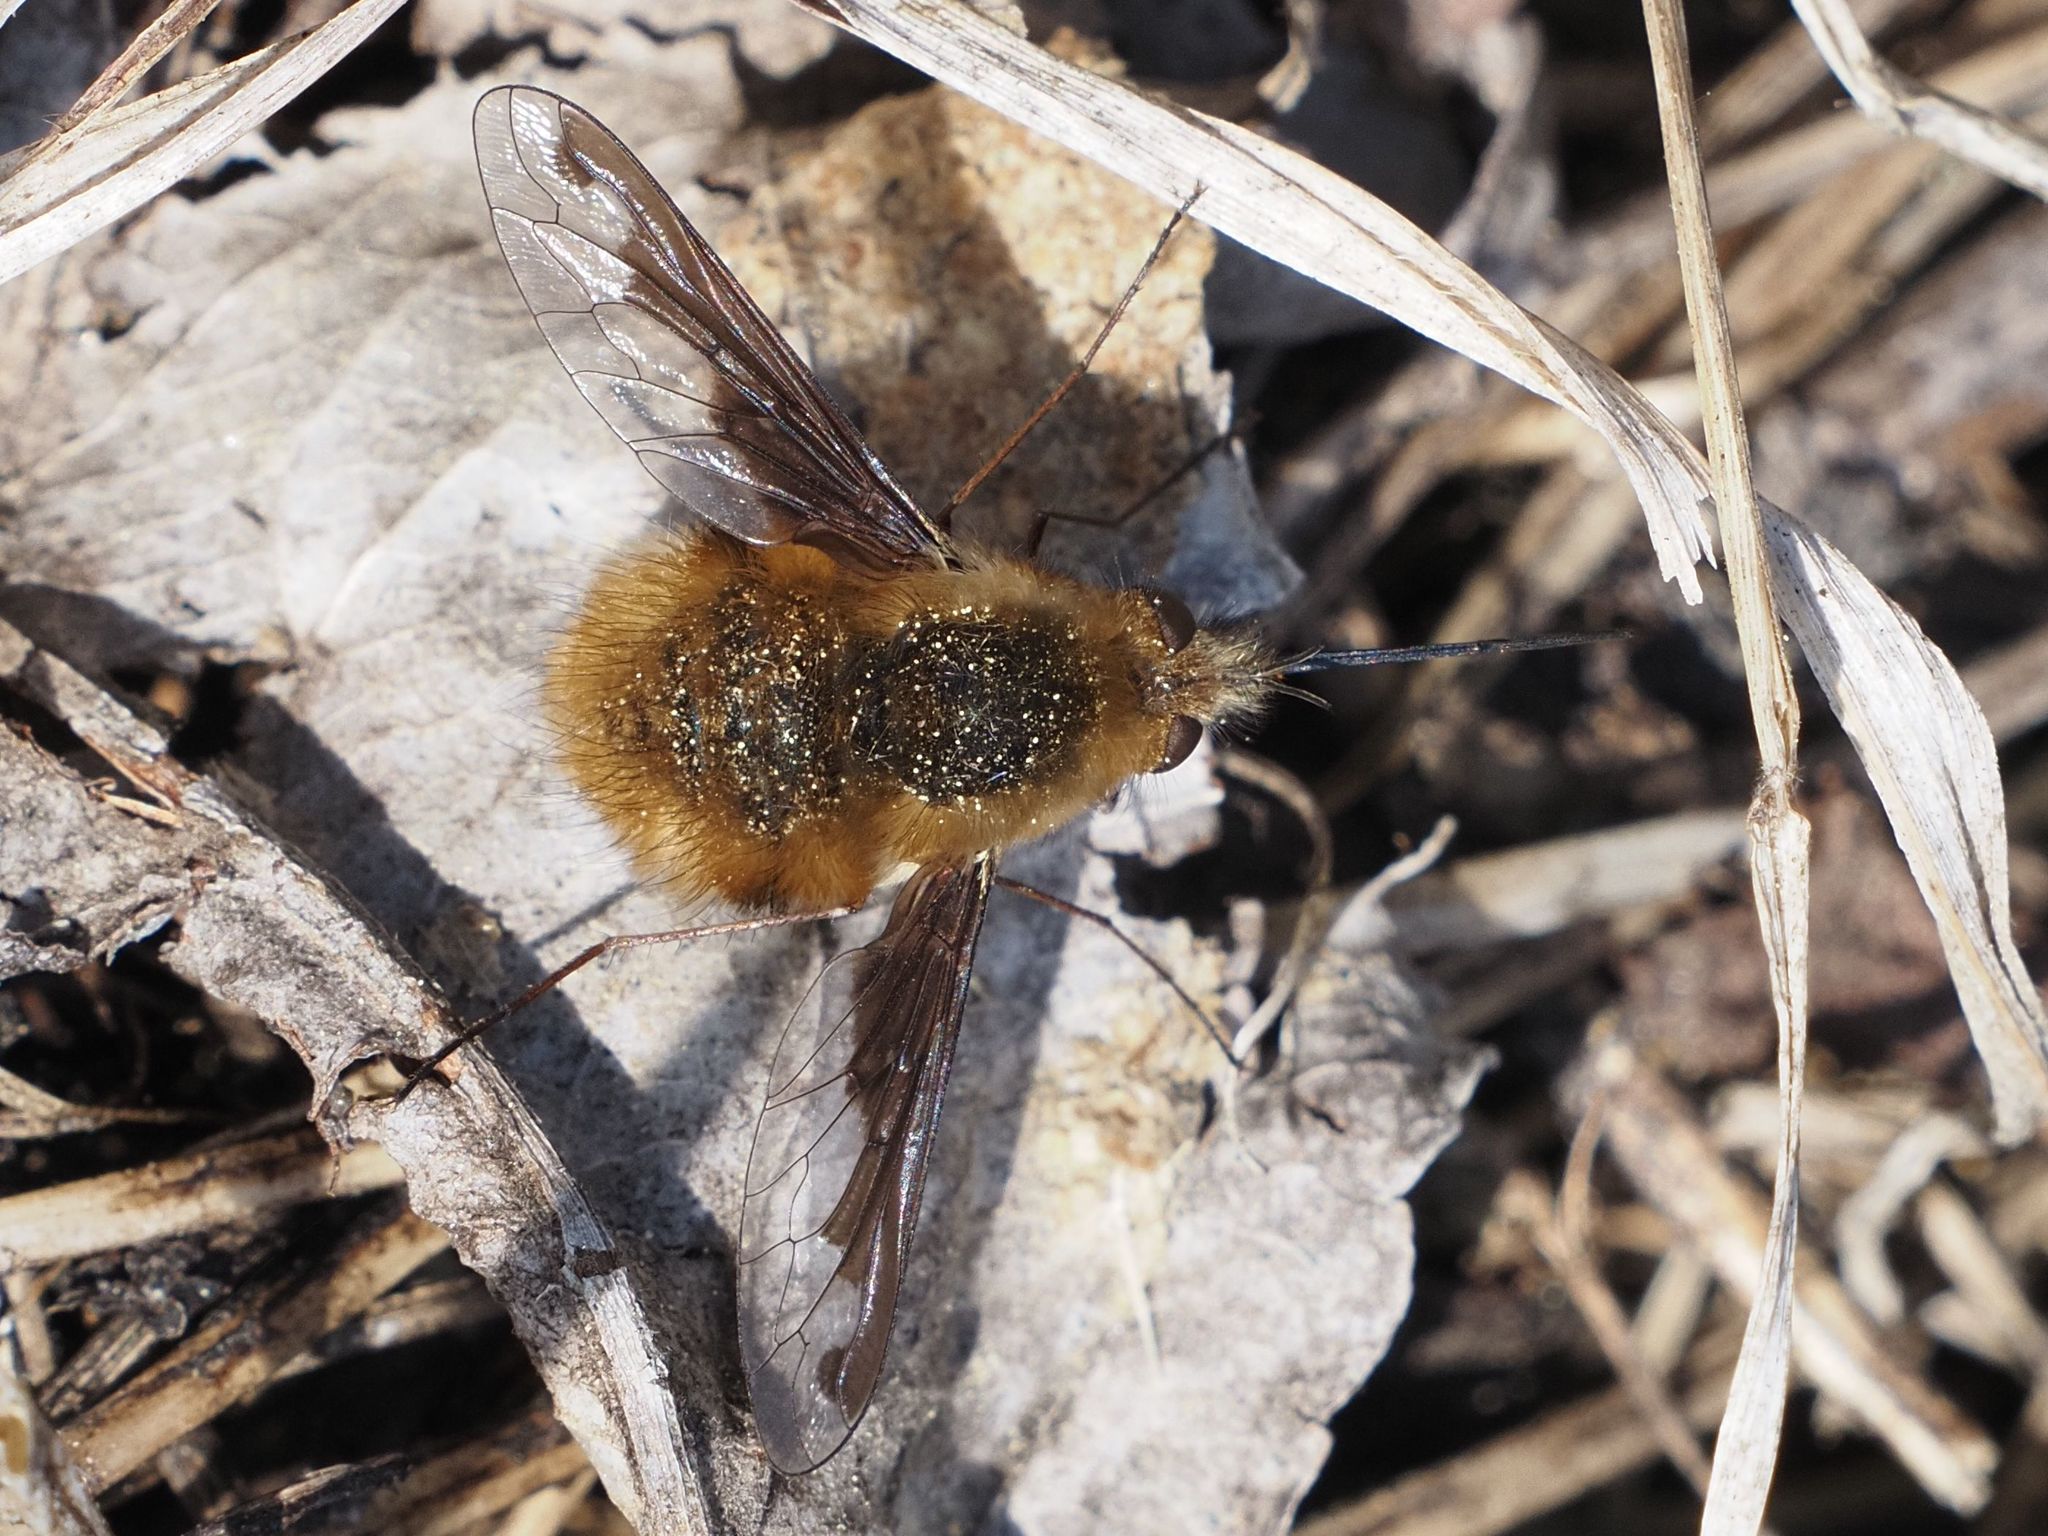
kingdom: Animalia
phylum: Arthropoda
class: Insecta
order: Diptera
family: Bombyliidae
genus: Bombylius
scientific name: Bombylius major
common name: Bee fly
